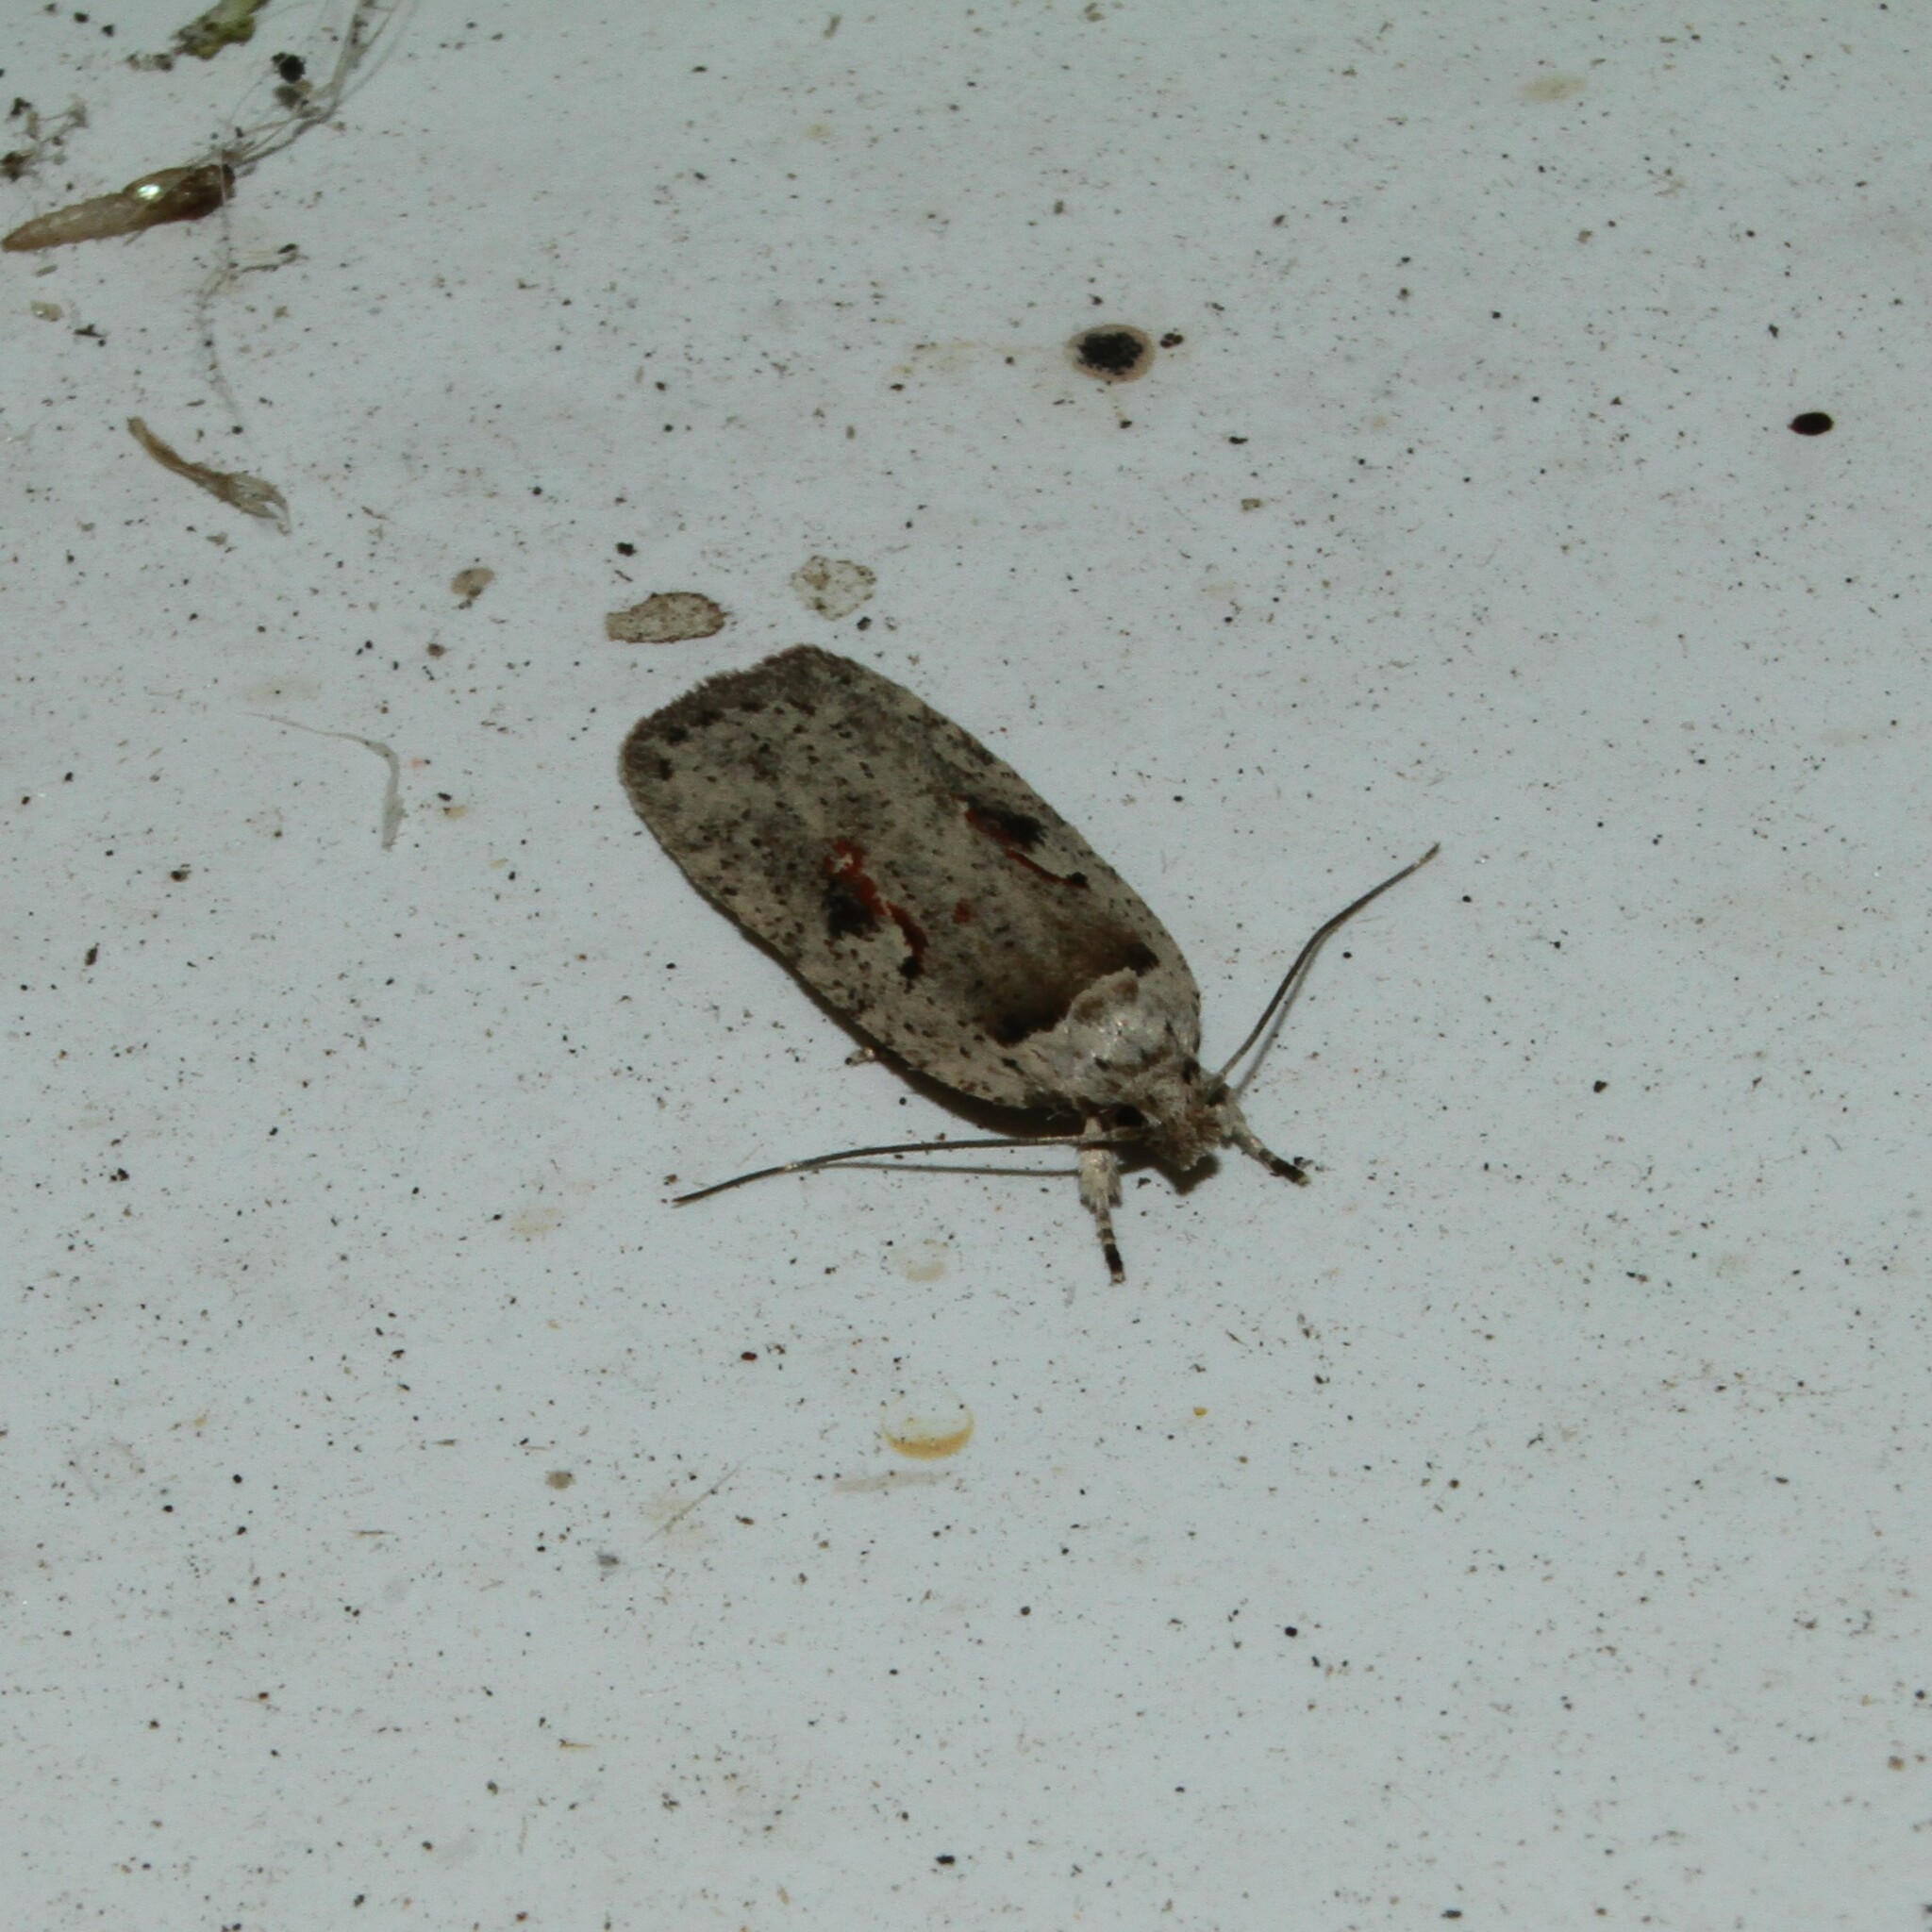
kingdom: Animalia
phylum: Arthropoda
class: Insecta
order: Lepidoptera
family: Depressariidae
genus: Agonopterix
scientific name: Agonopterix ocellana
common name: Red-letter flat-body
